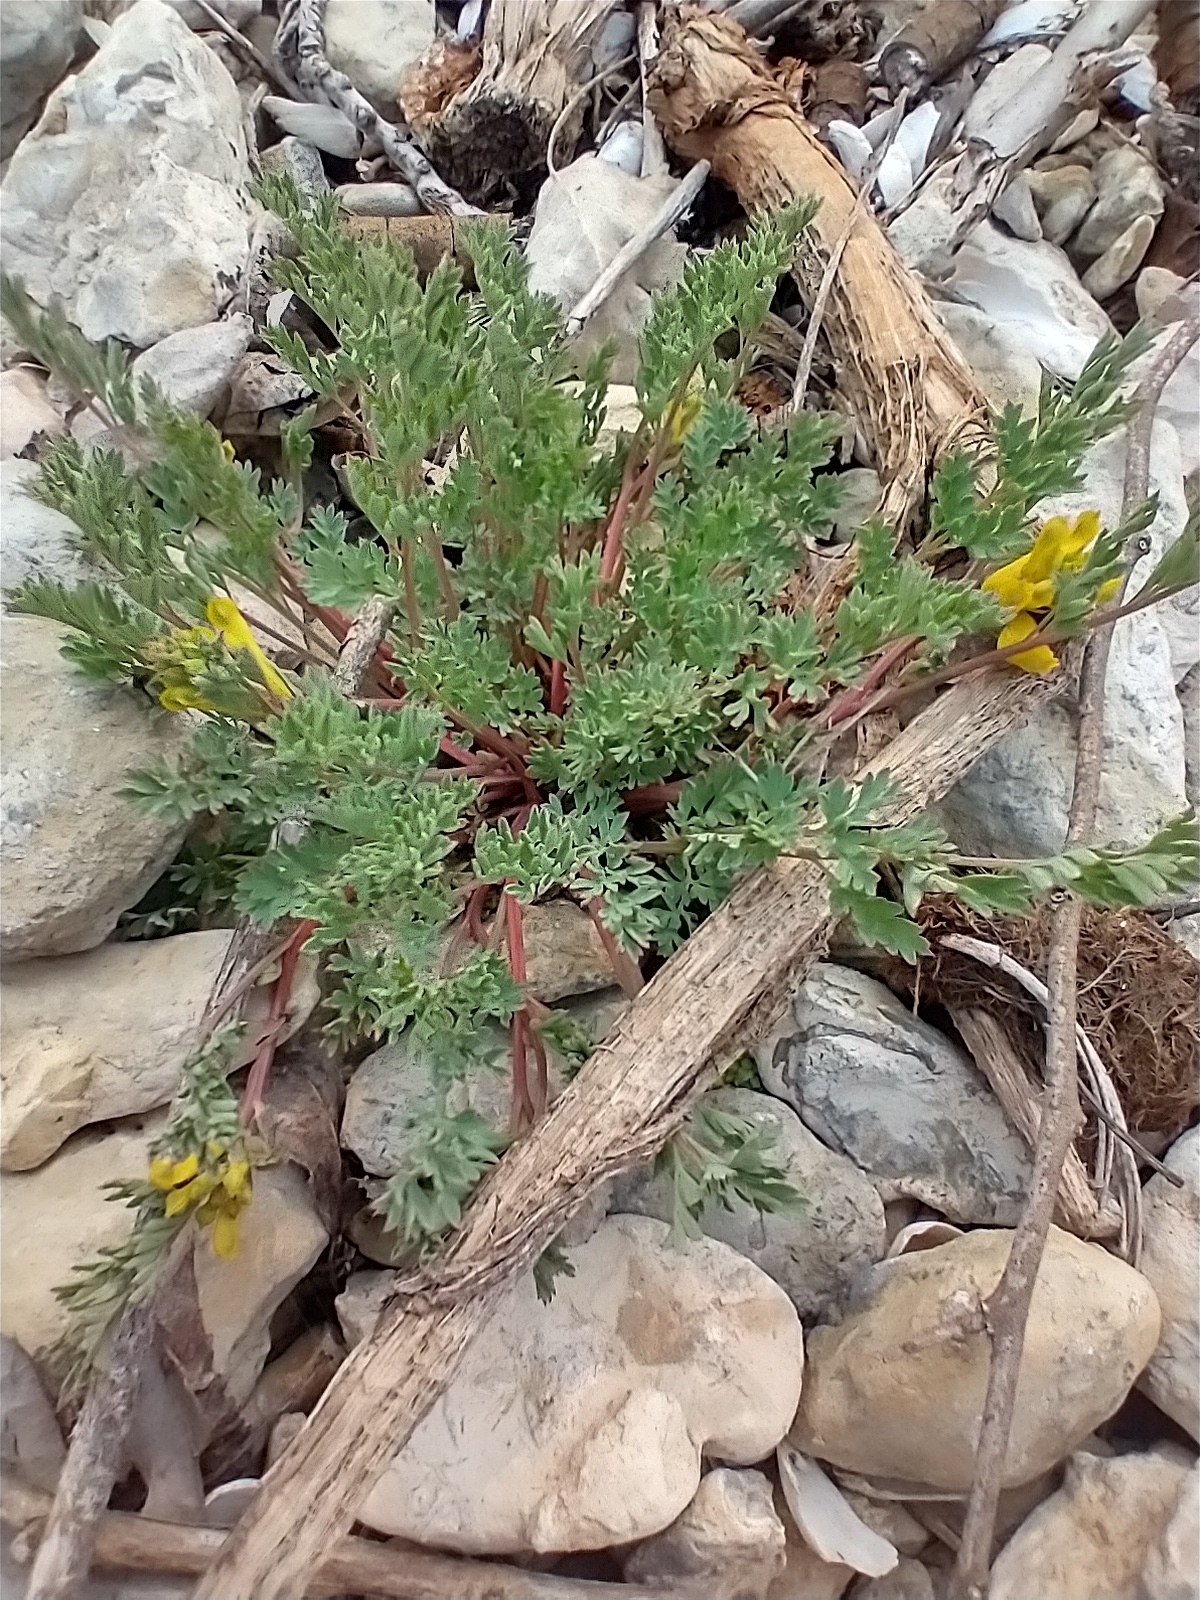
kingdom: Plantae
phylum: Tracheophyta
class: Magnoliopsida
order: Ranunculales
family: Papaveraceae
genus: Corydalis
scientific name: Corydalis aurea
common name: Golden corydalis
